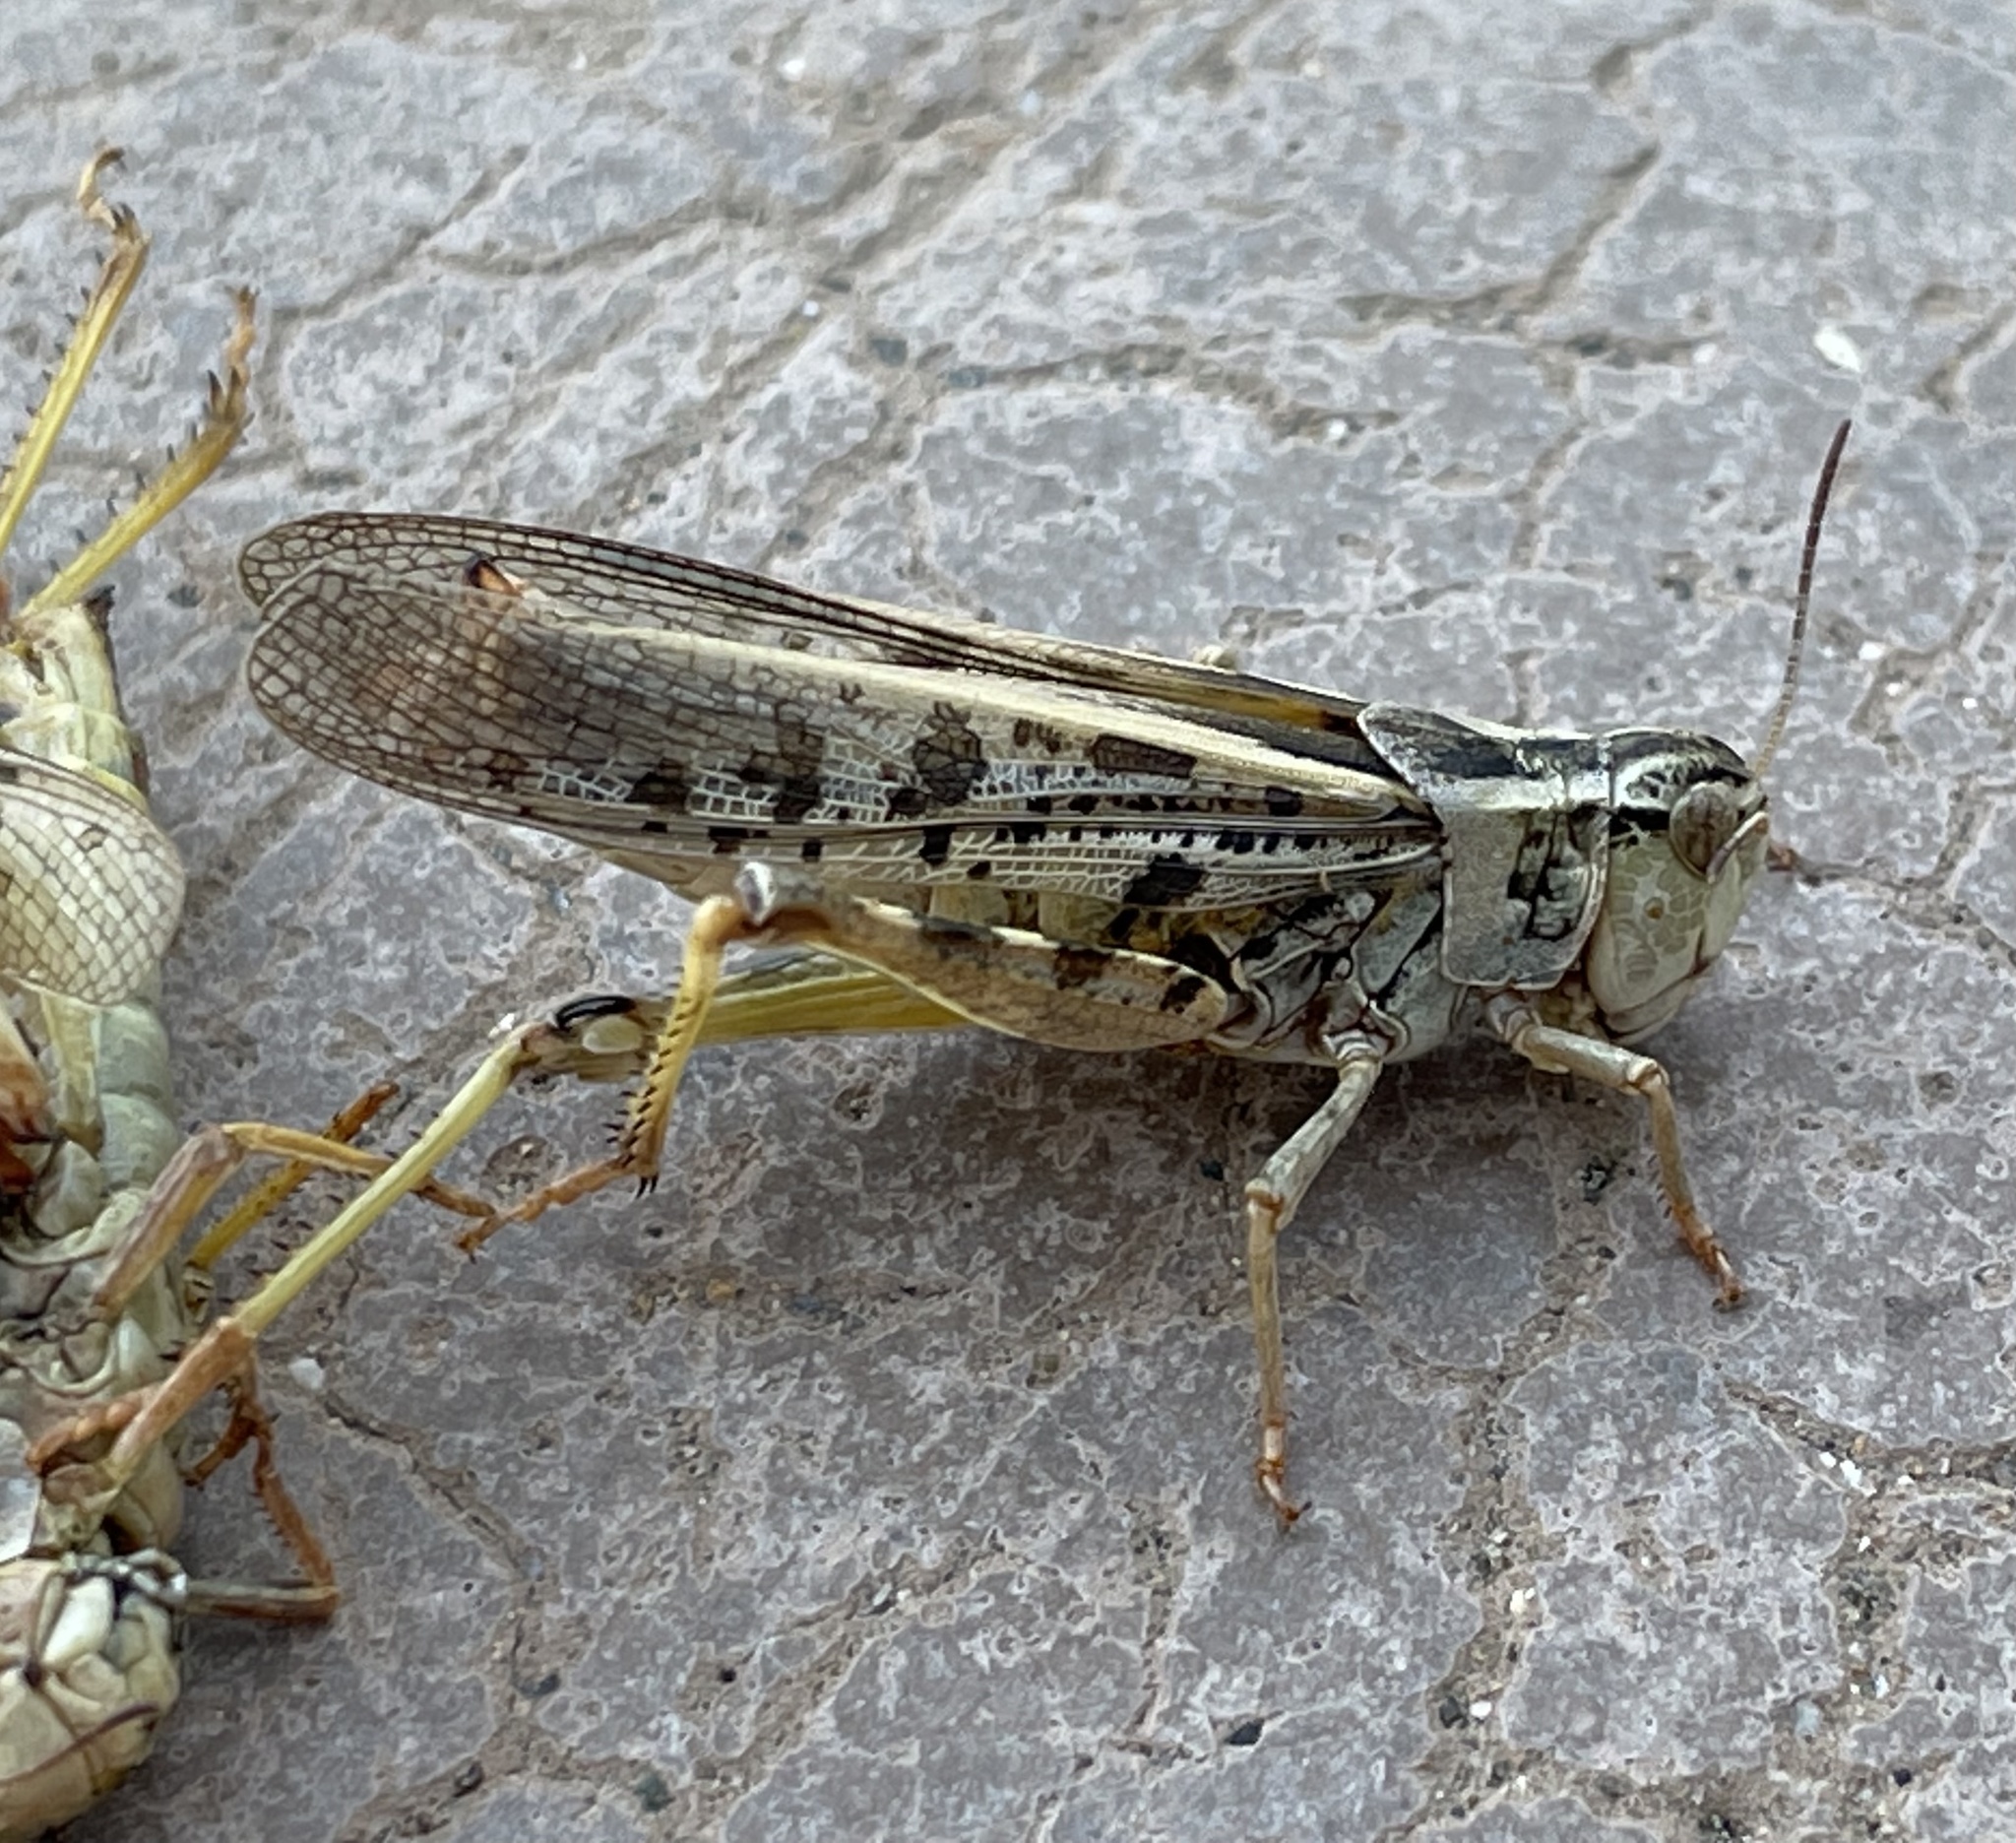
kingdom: Animalia
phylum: Arthropoda
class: Insecta
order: Orthoptera
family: Acrididae
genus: Camnula
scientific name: Camnula pellucida
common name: Clear-winged grasshopper
